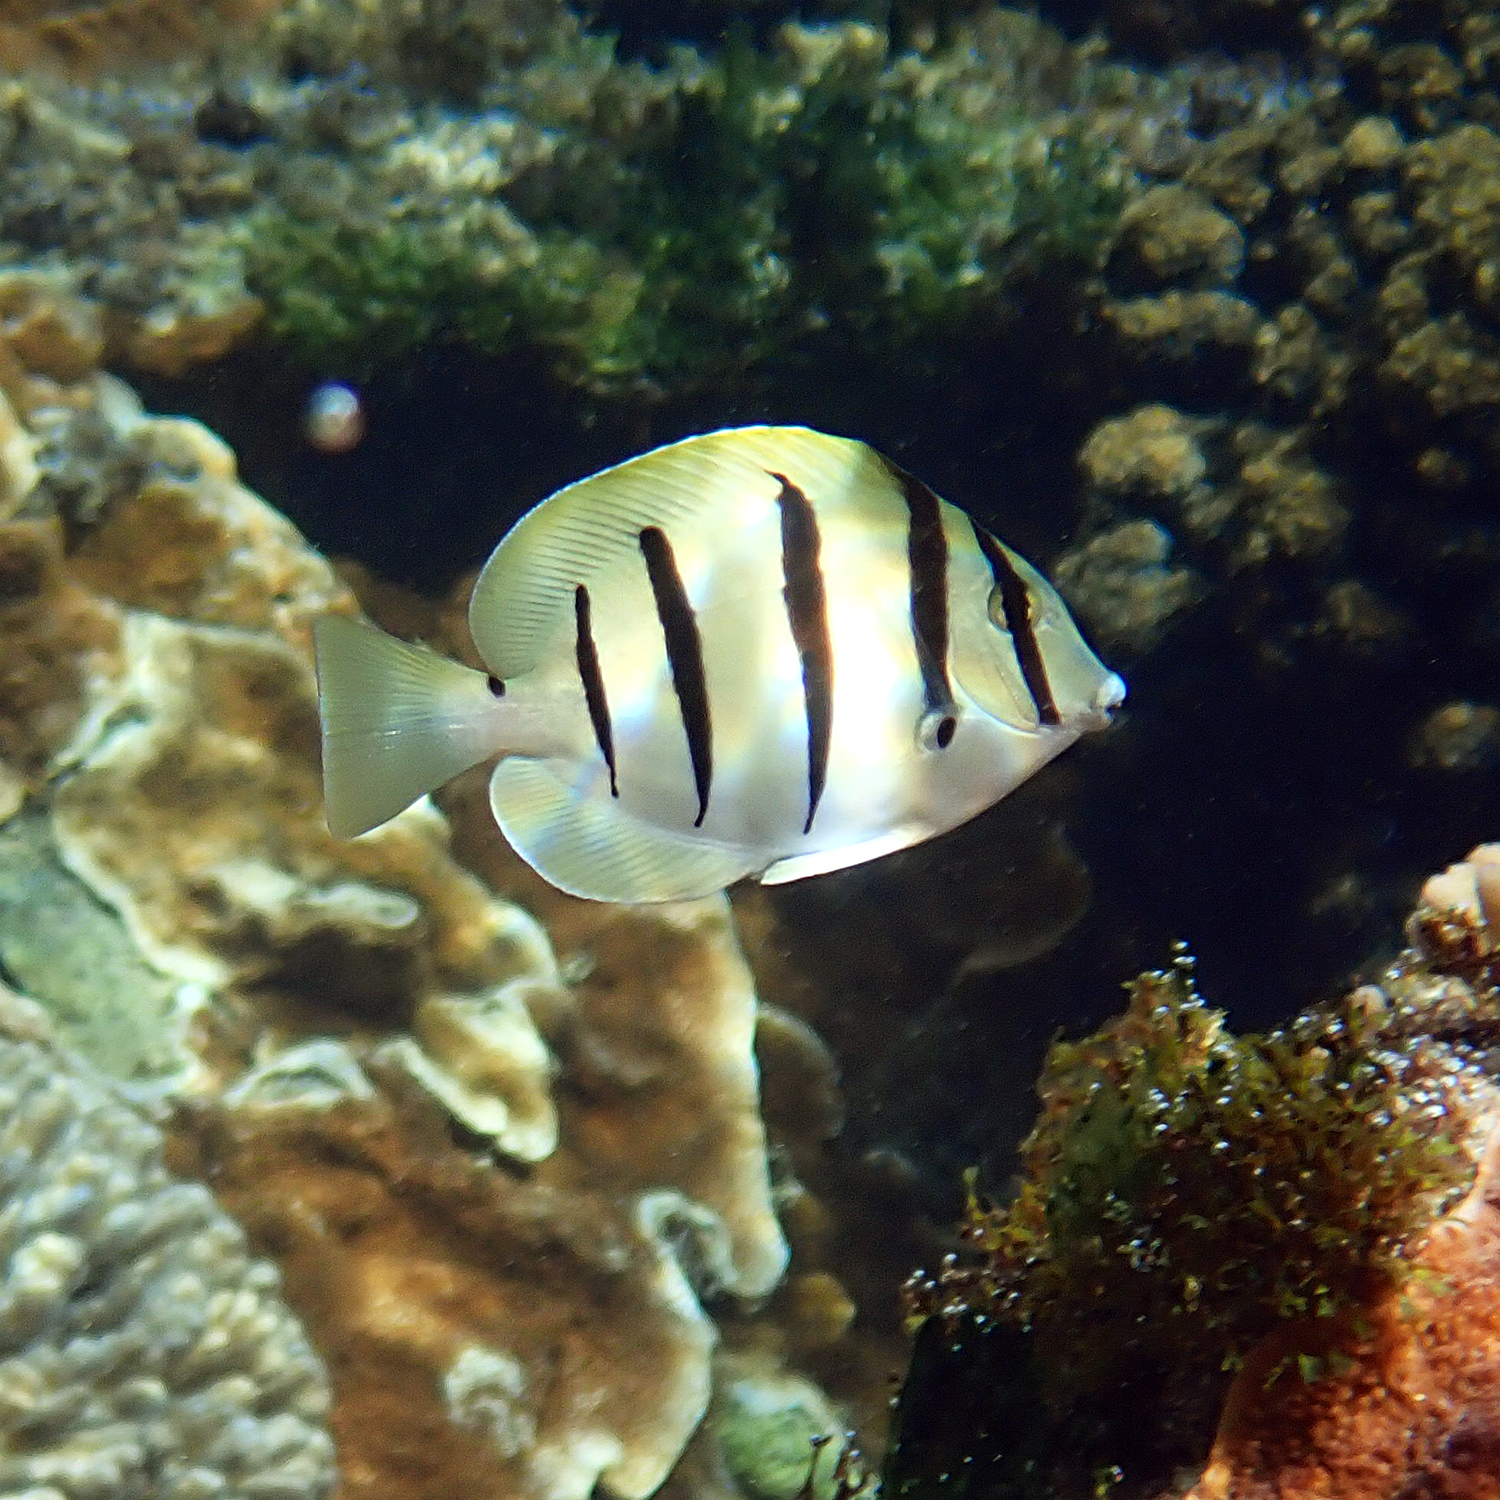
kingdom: Animalia
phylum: Chordata
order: Perciformes
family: Acanthuridae
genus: Acanthurus
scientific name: Acanthurus triostegus
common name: Convict surgeonfish
